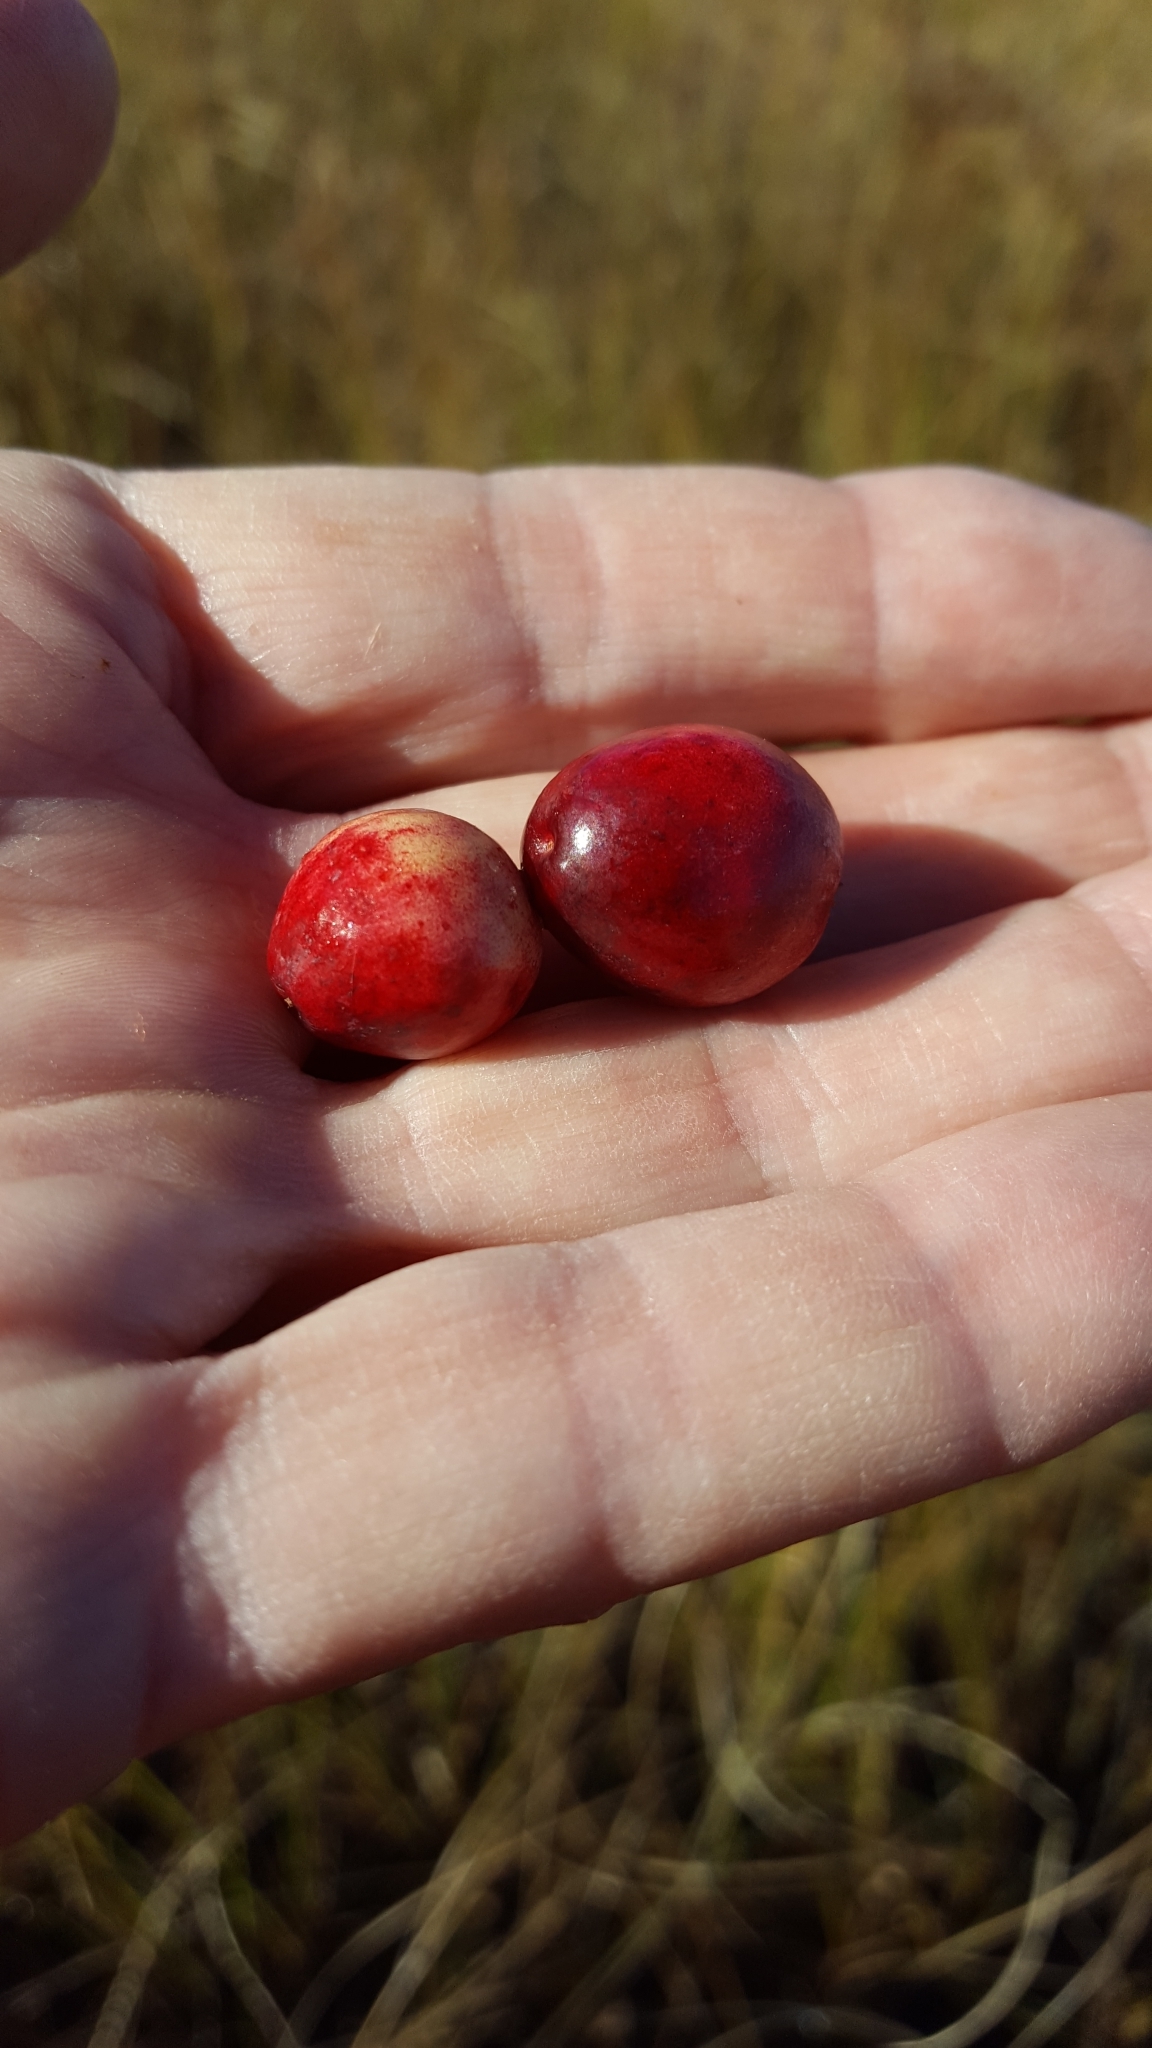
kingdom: Plantae
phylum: Tracheophyta
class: Magnoliopsida
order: Ericales
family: Ericaceae
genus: Vaccinium
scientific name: Vaccinium macrocarpon
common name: American cranberry
